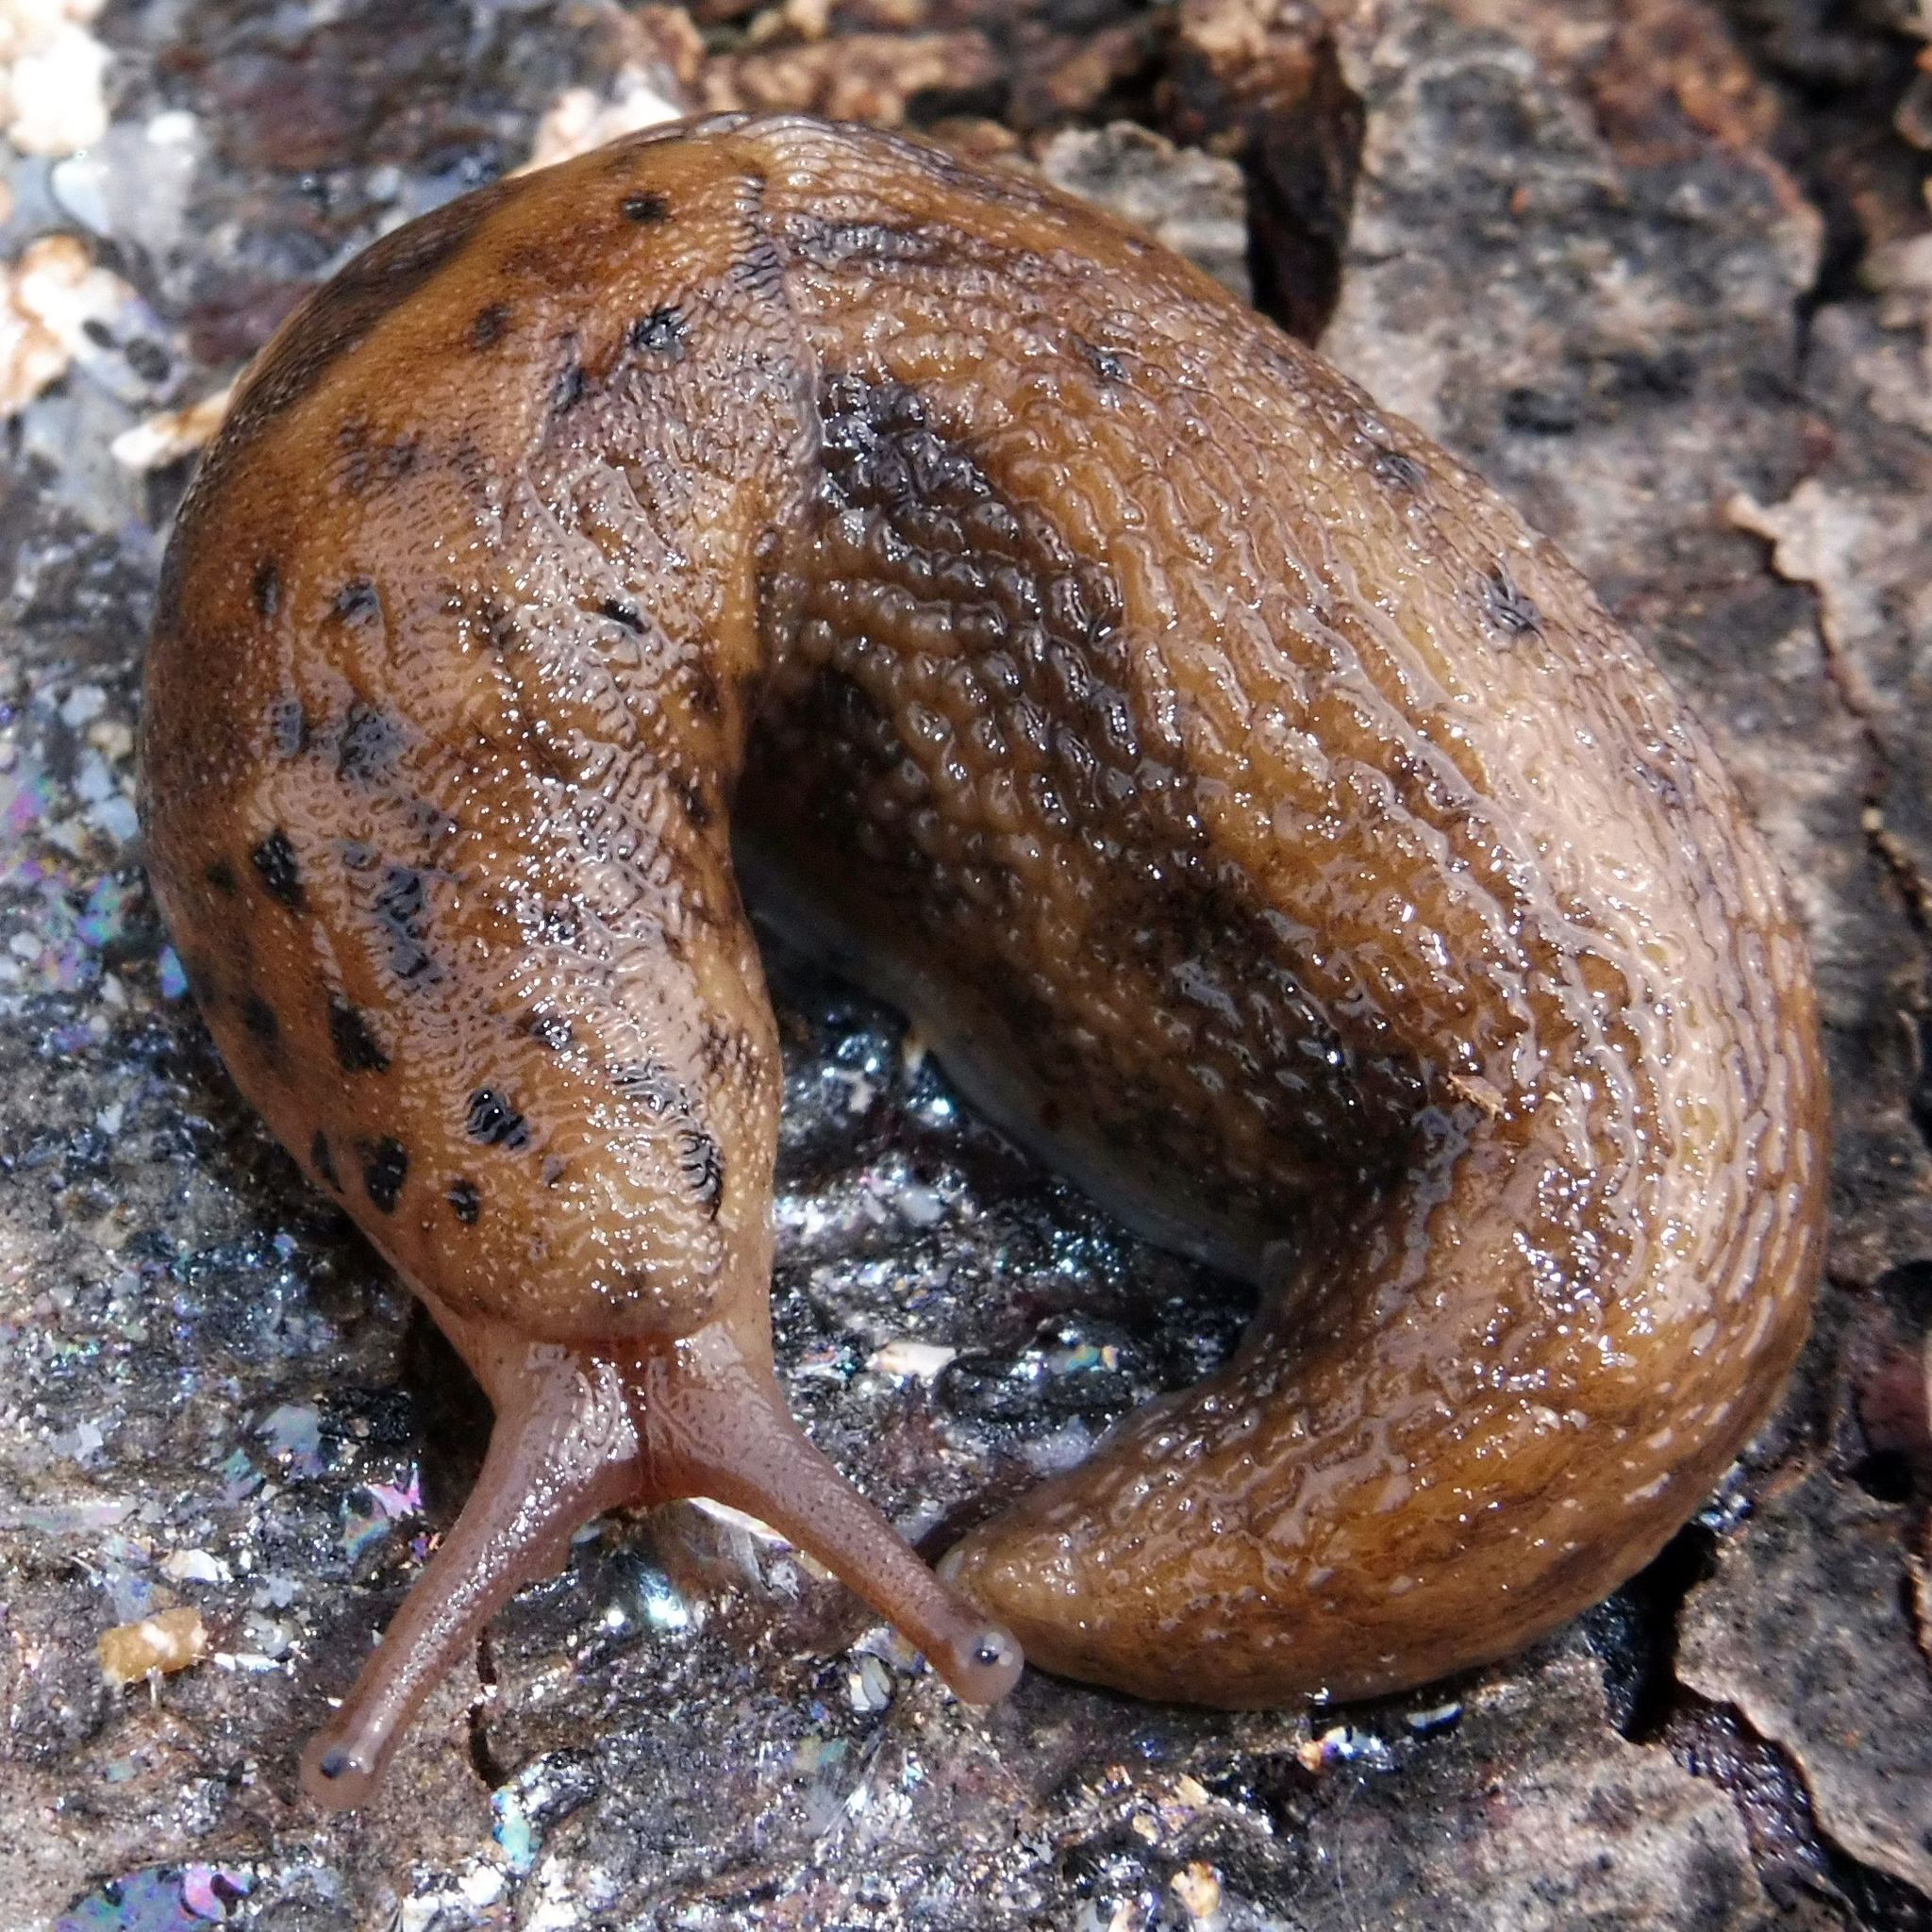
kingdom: Animalia
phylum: Mollusca
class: Gastropoda
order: Stylommatophora
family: Limacidae
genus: Limax
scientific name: Limax maximus
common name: Great grey slug
